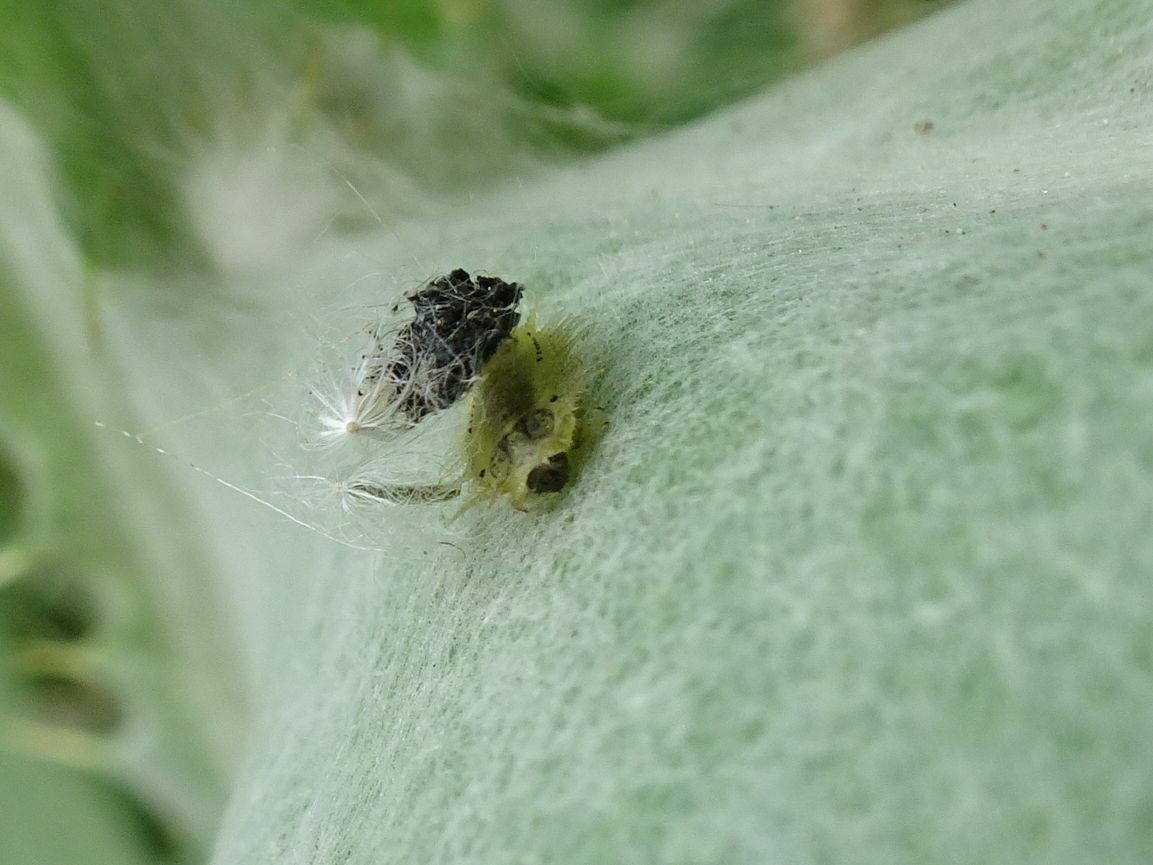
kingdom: Animalia
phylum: Arthropoda
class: Insecta
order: Coleoptera
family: Chrysomelidae
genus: Cassida
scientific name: Cassida rubiginosa
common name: Thistle tortoise beetle
